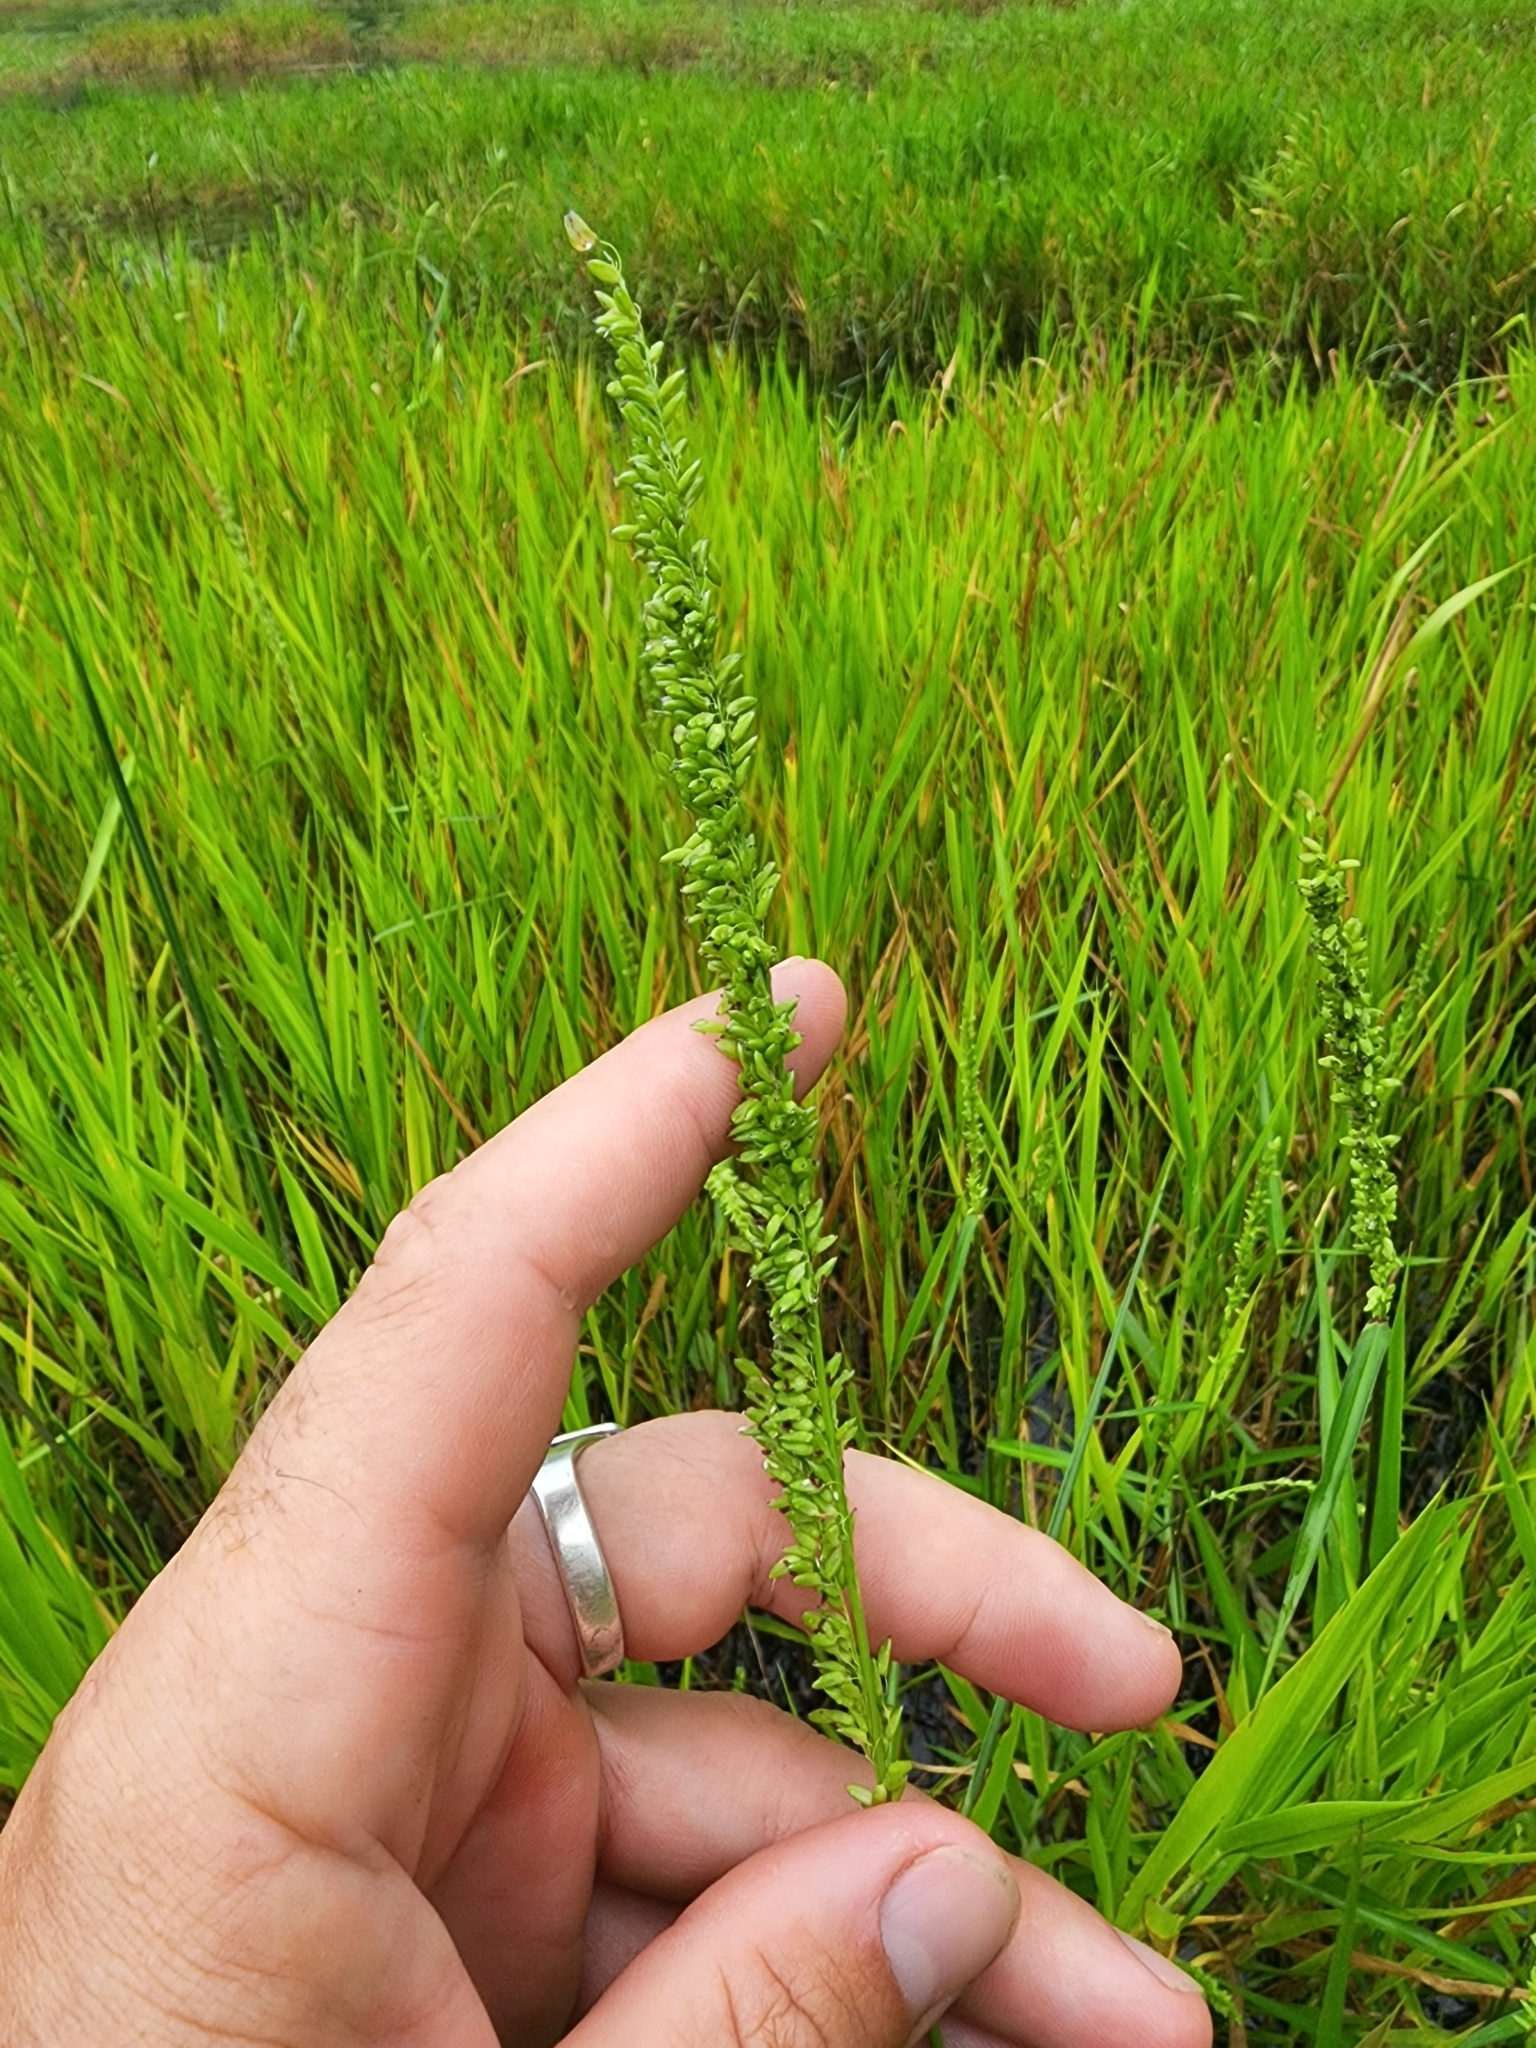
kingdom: Plantae
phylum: Tracheophyta
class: Liliopsida
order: Poales
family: Poaceae
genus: Sacciolepis
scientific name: Sacciolepis striata
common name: American cupscale
